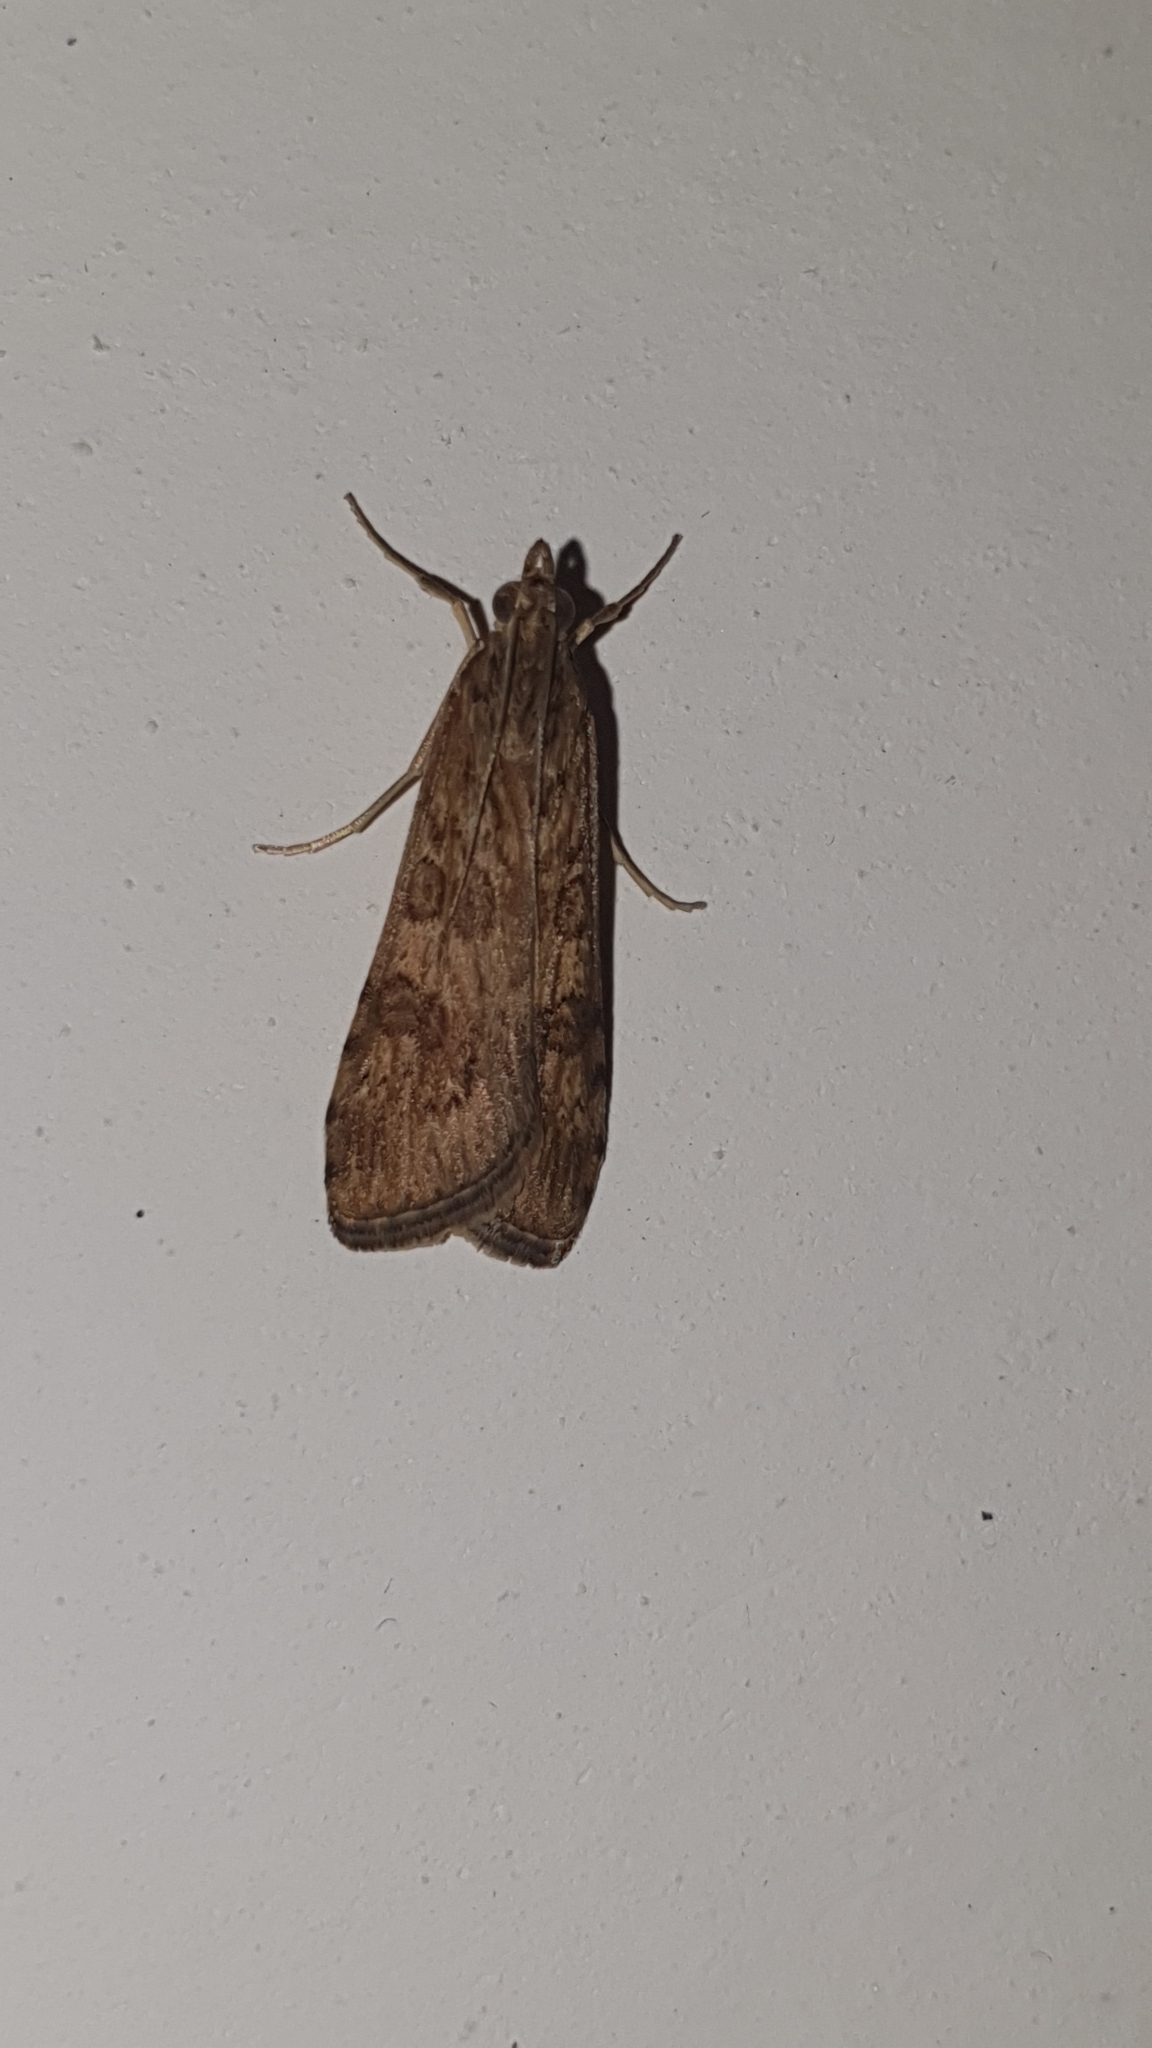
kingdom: Animalia
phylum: Arthropoda
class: Insecta
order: Lepidoptera
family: Crambidae
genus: Nomophila
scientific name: Nomophila noctuella
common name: Rush veneer
